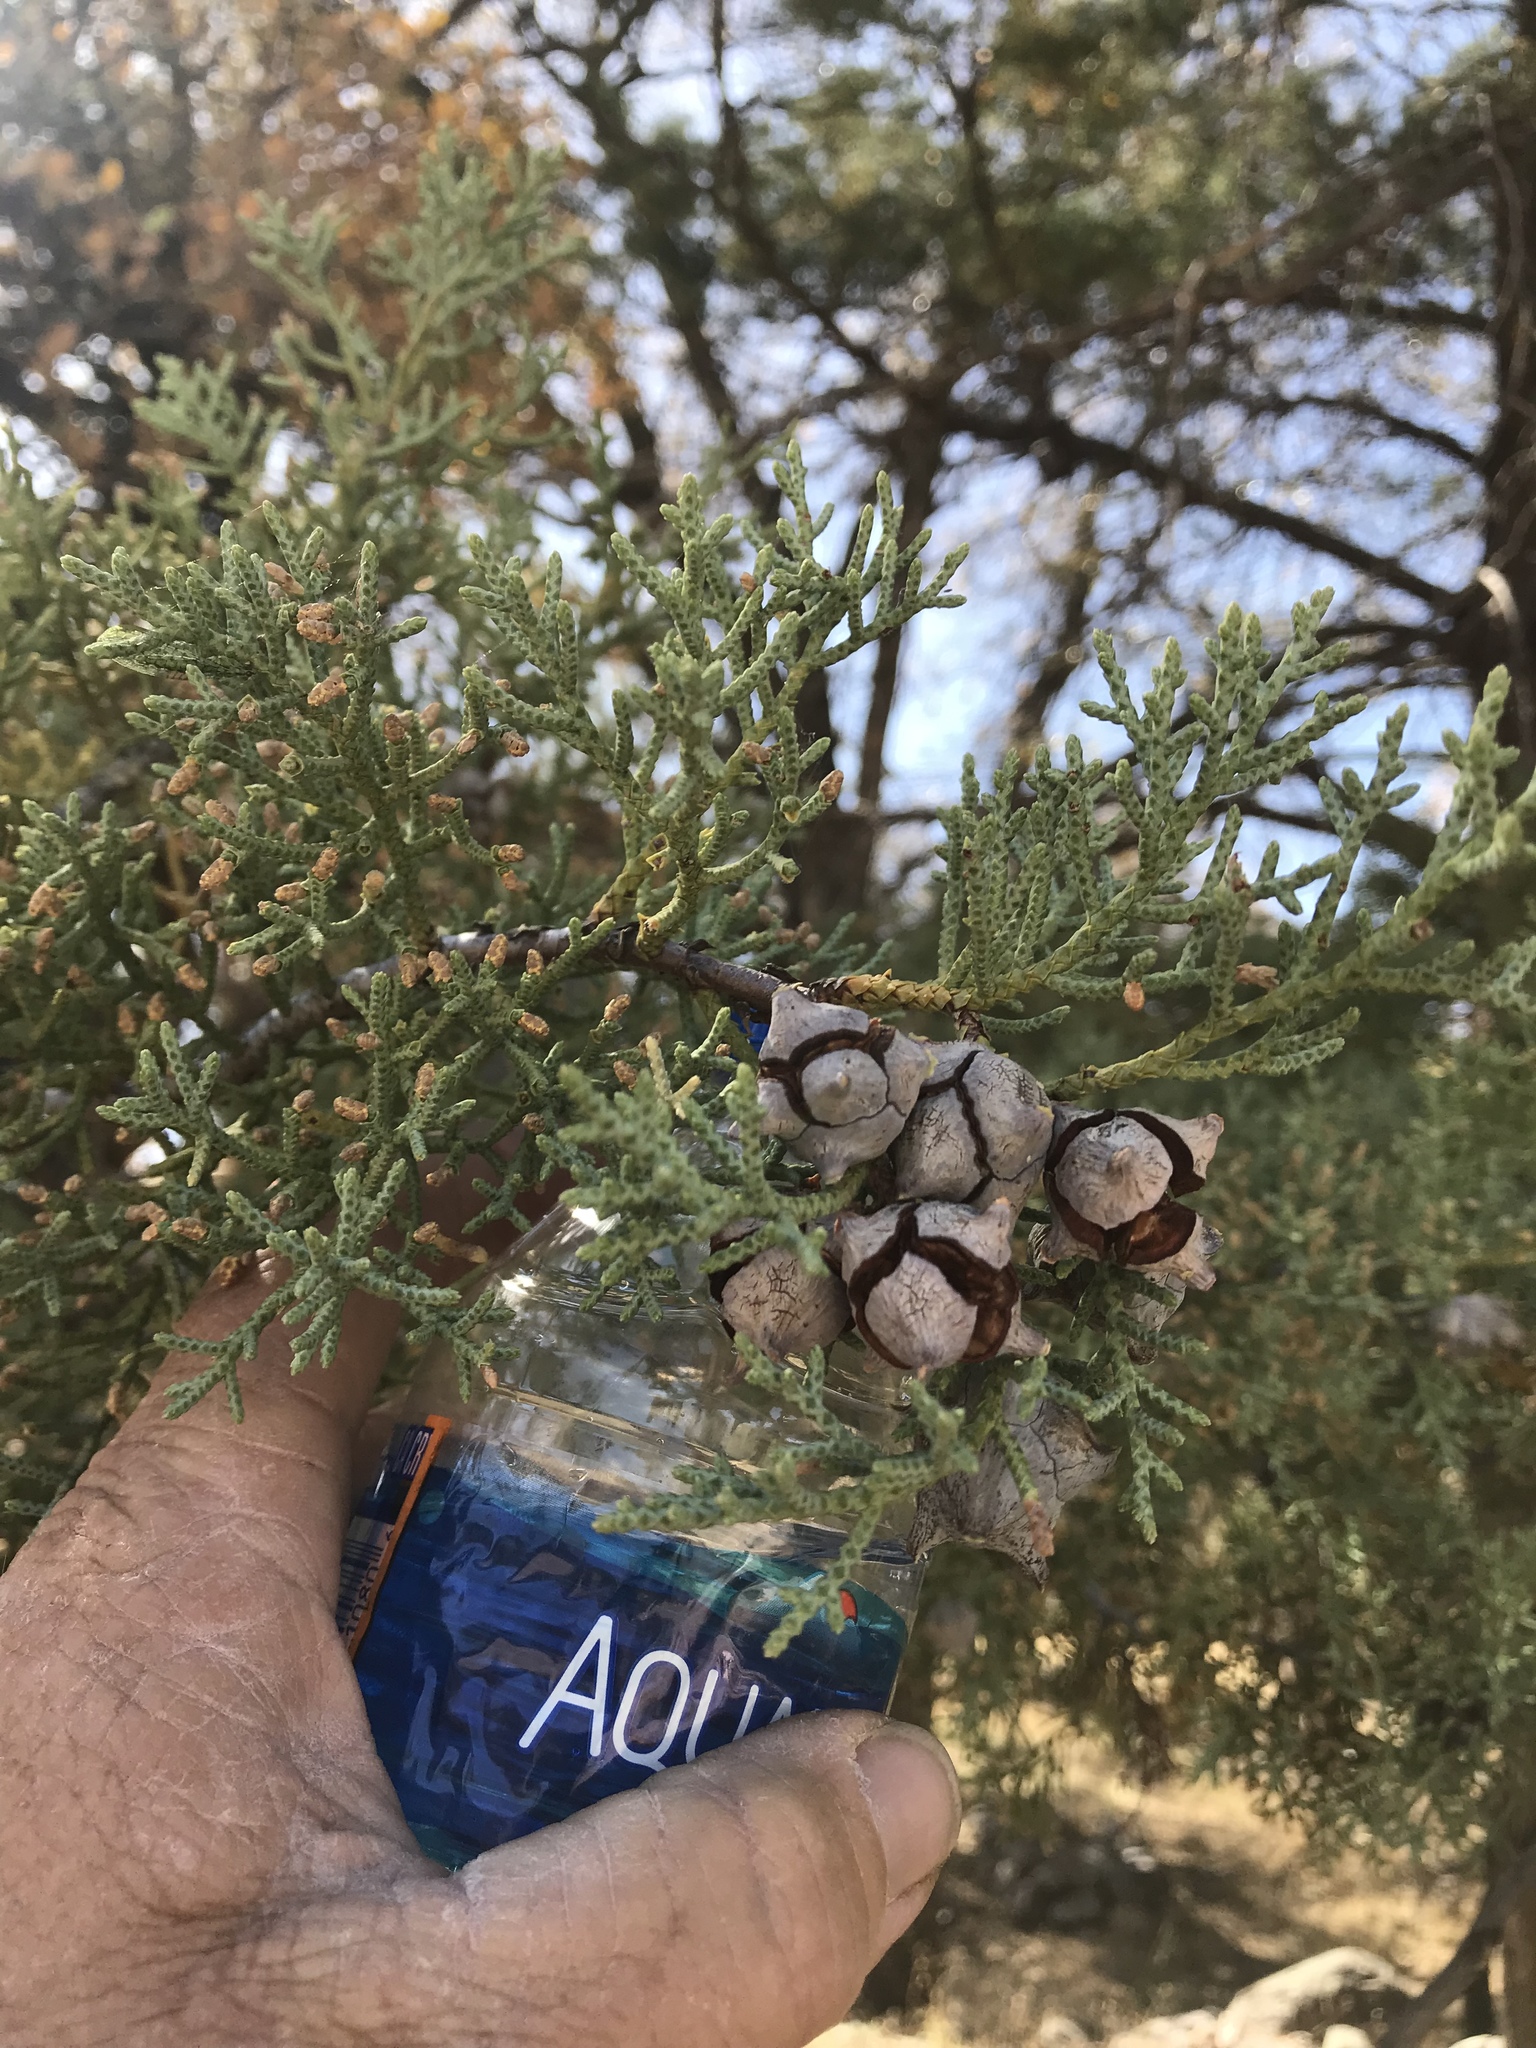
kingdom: Plantae
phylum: Tracheophyta
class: Pinopsida
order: Pinales
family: Cupressaceae
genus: Cupressus
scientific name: Cupressus arizonica
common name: Arizona cypress
